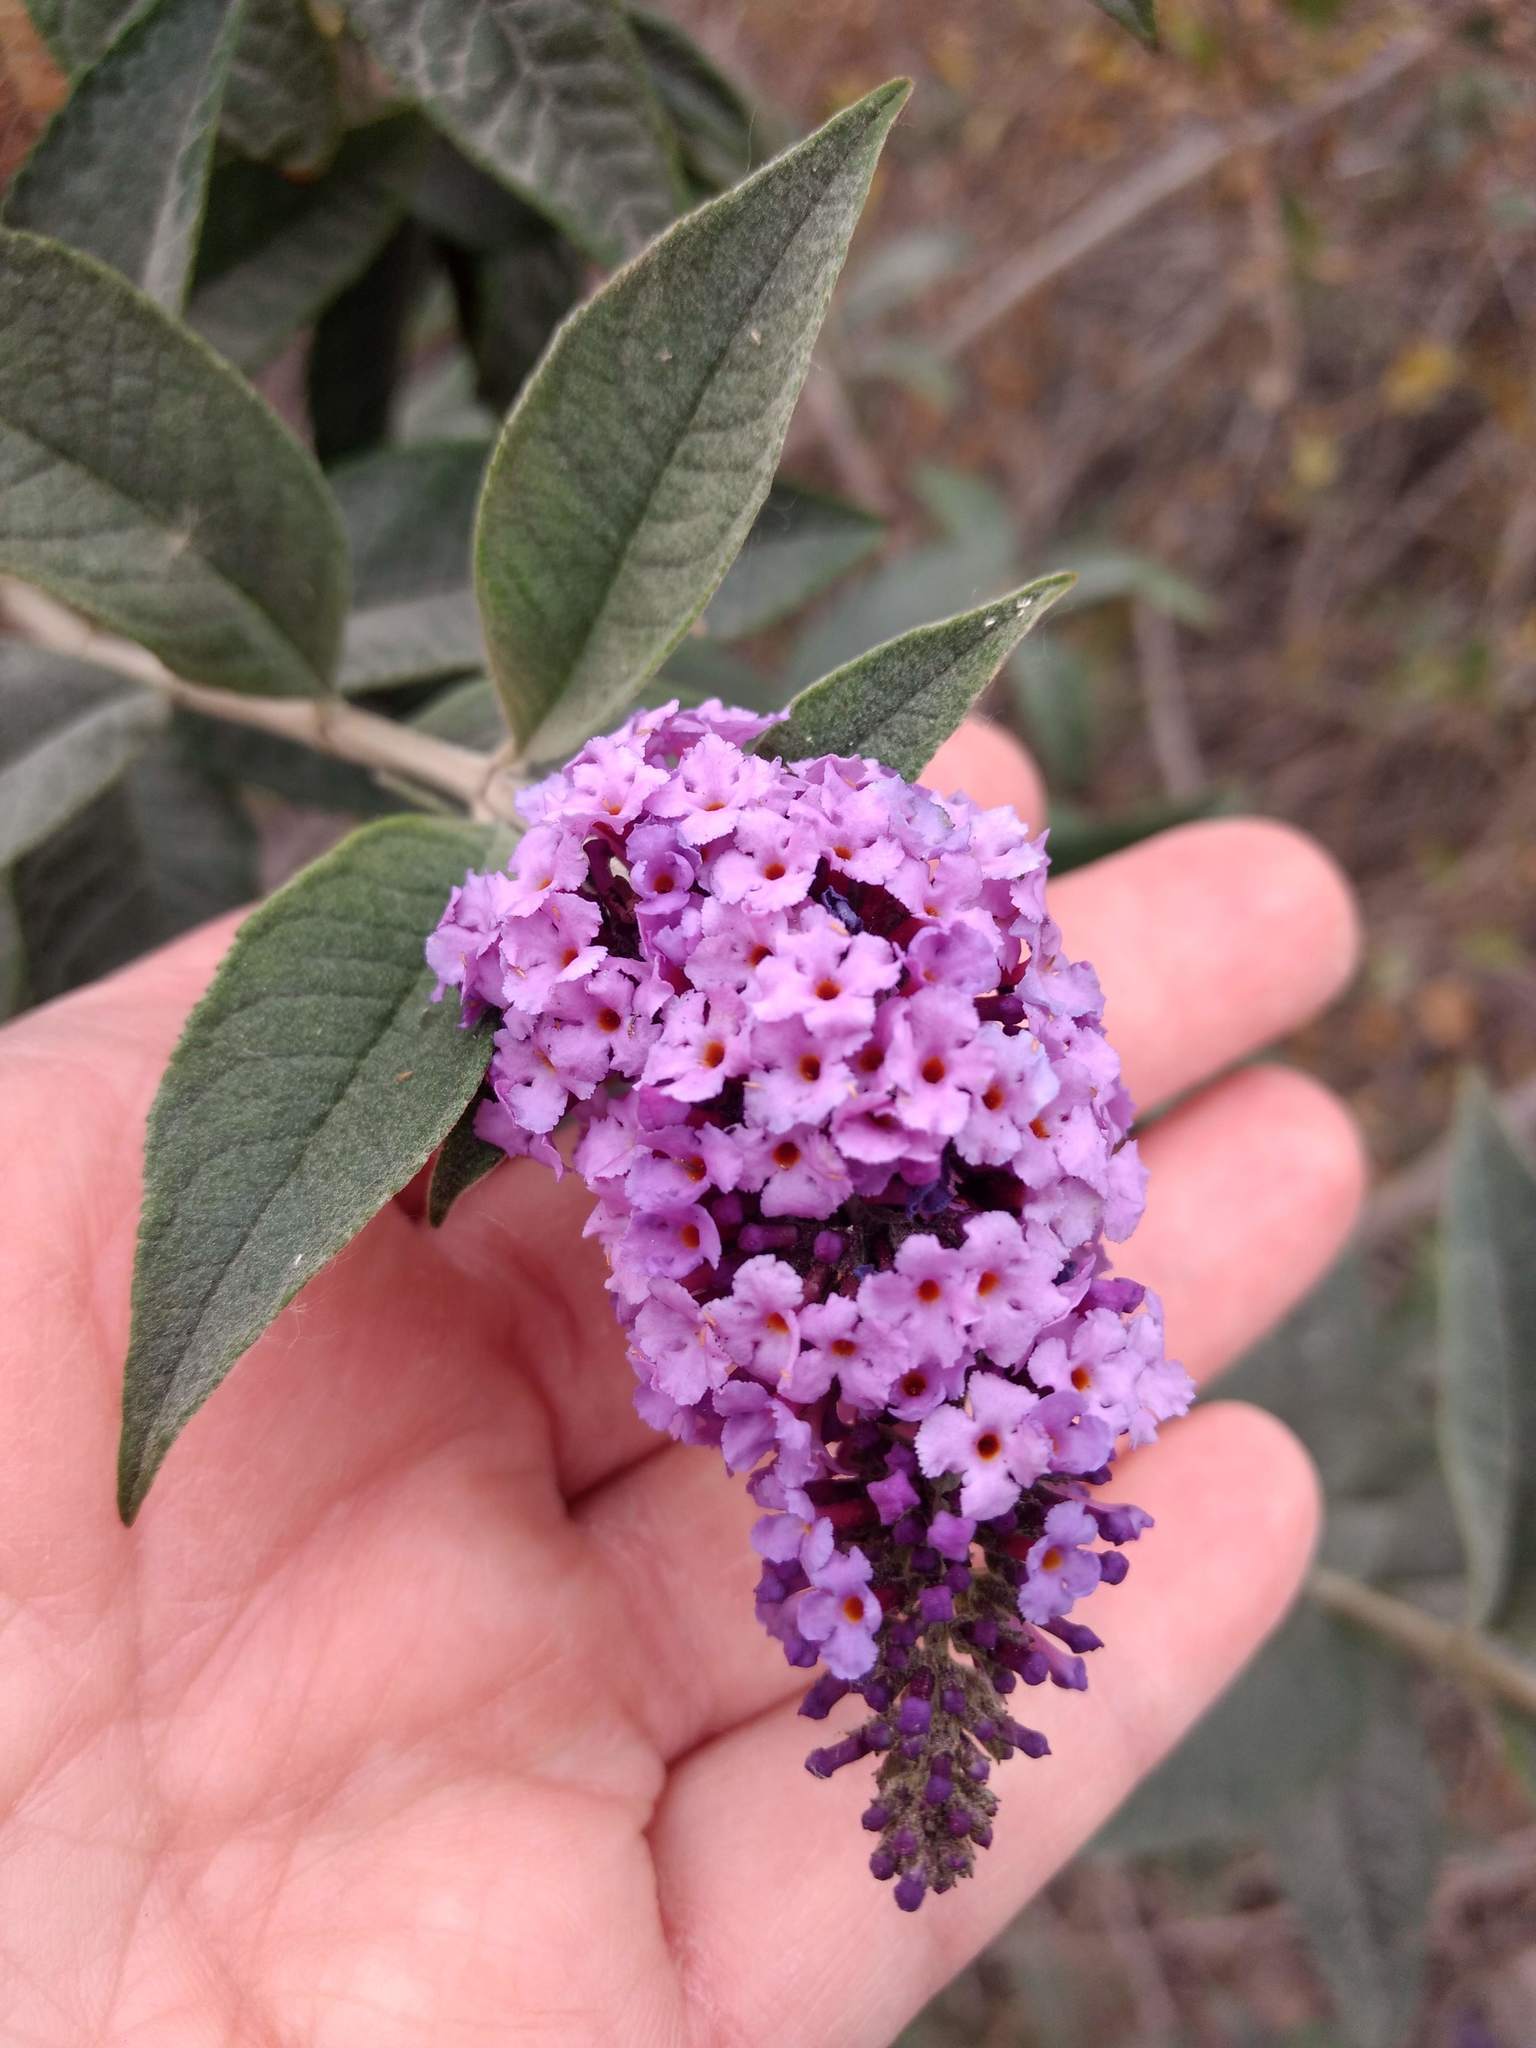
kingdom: Plantae
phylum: Tracheophyta
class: Magnoliopsida
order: Lamiales
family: Scrophulariaceae
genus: Buddleja
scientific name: Buddleja davidii
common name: Butterfly-bush
